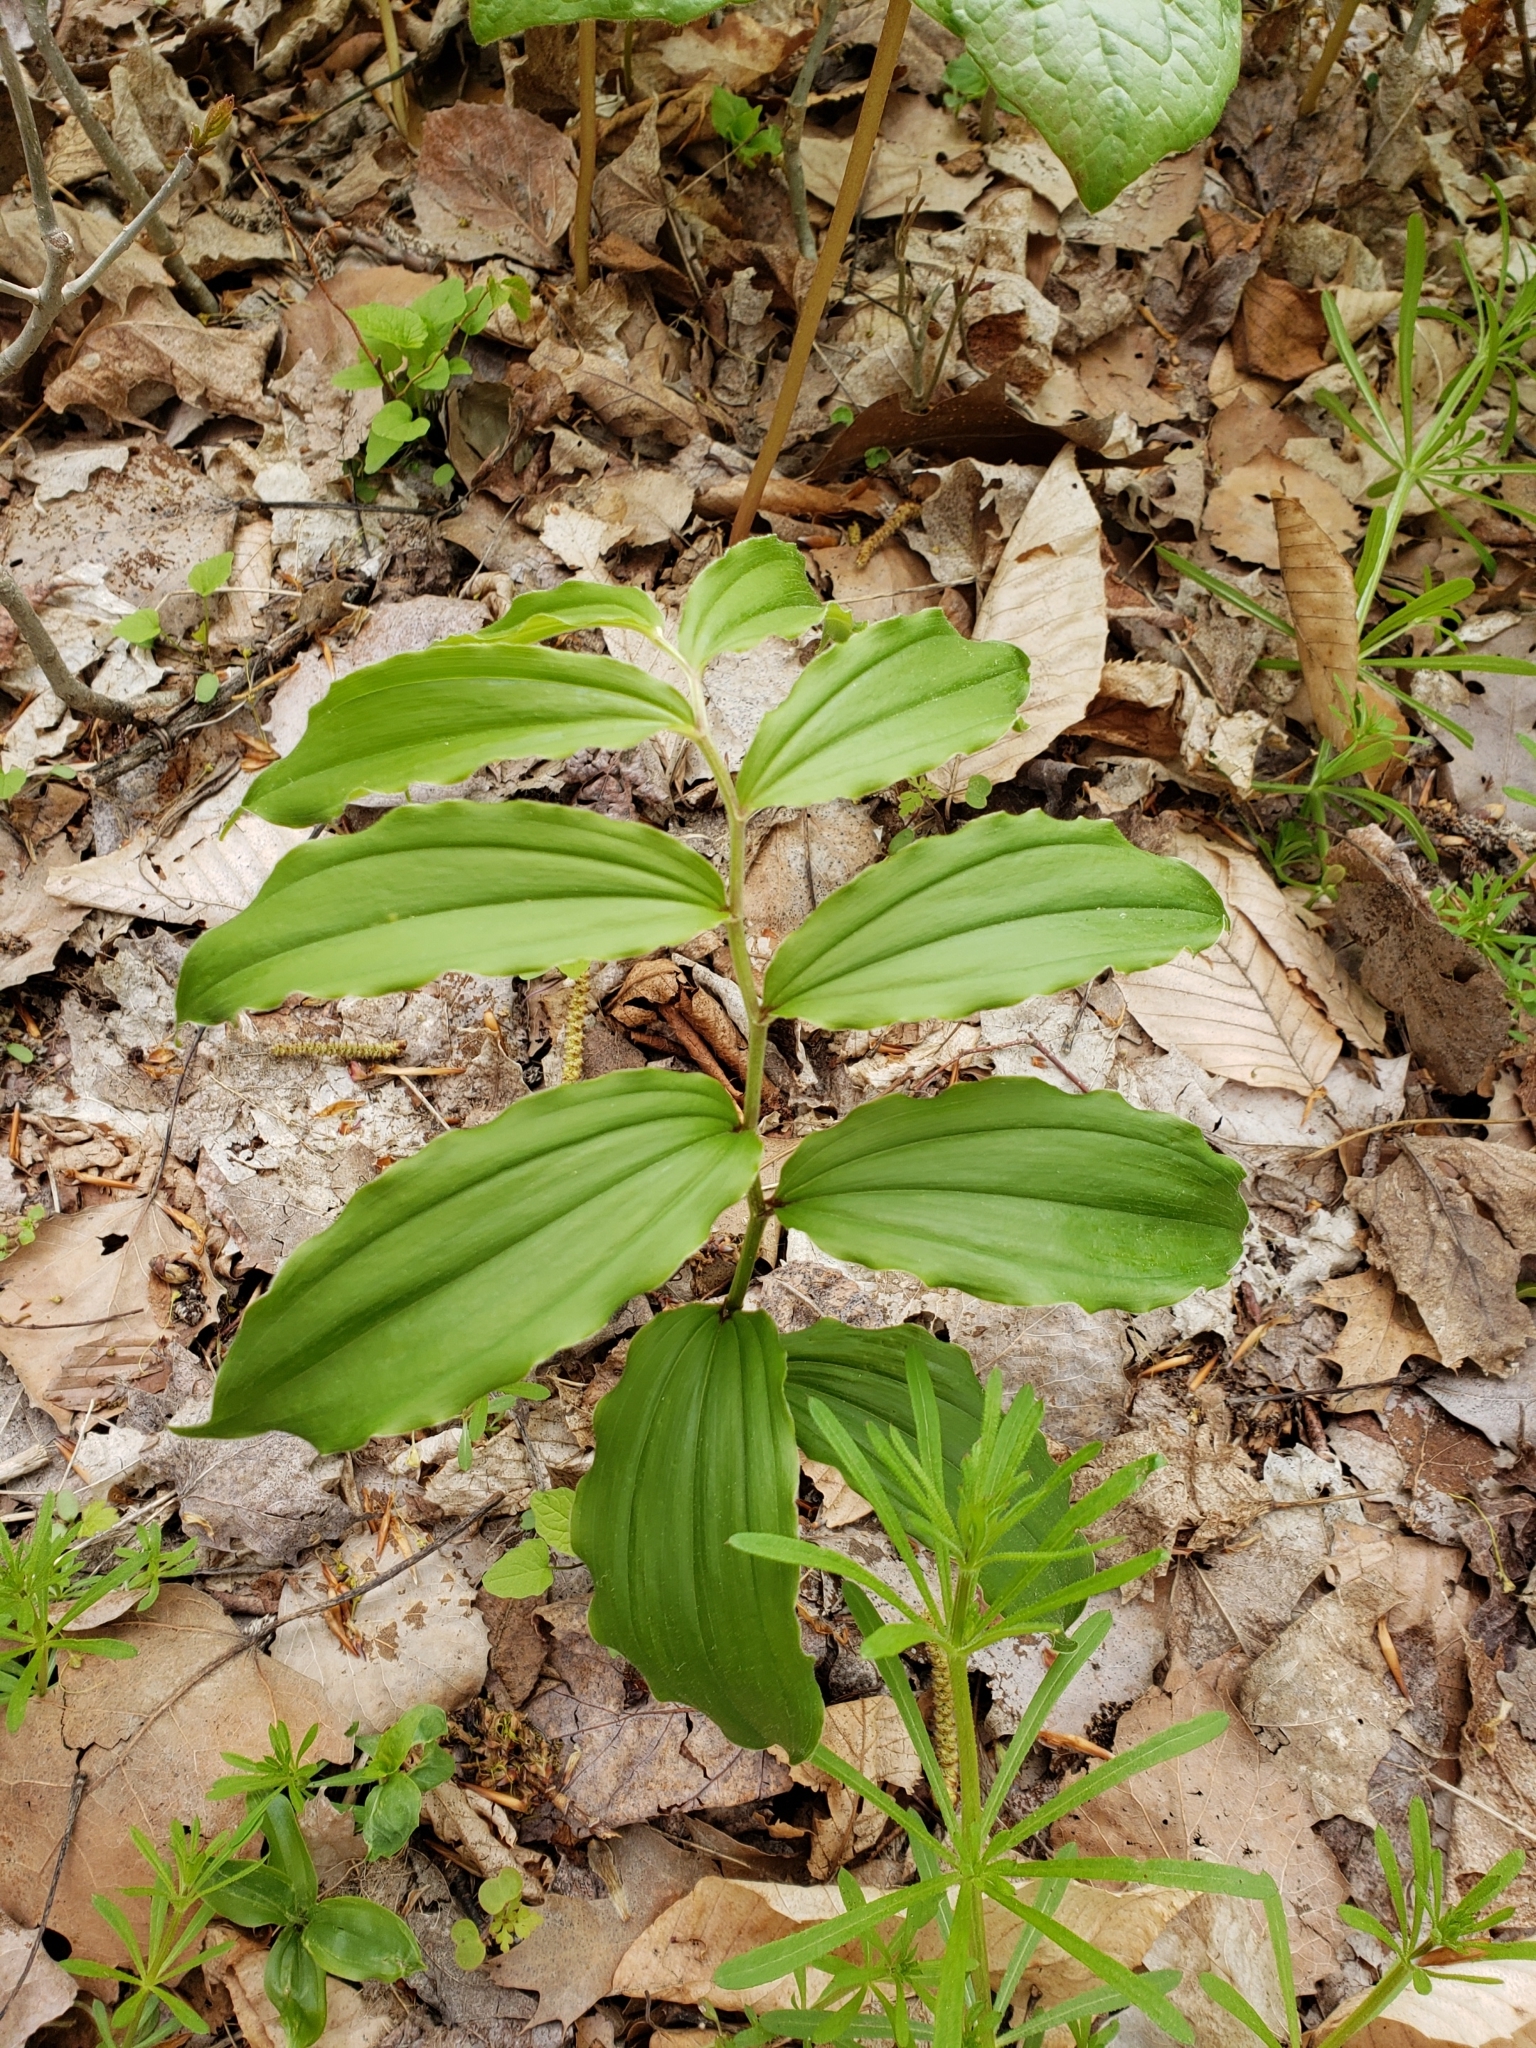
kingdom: Plantae
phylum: Tracheophyta
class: Liliopsida
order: Asparagales
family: Asparagaceae
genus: Maianthemum
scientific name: Maianthemum racemosum
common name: False spikenard
